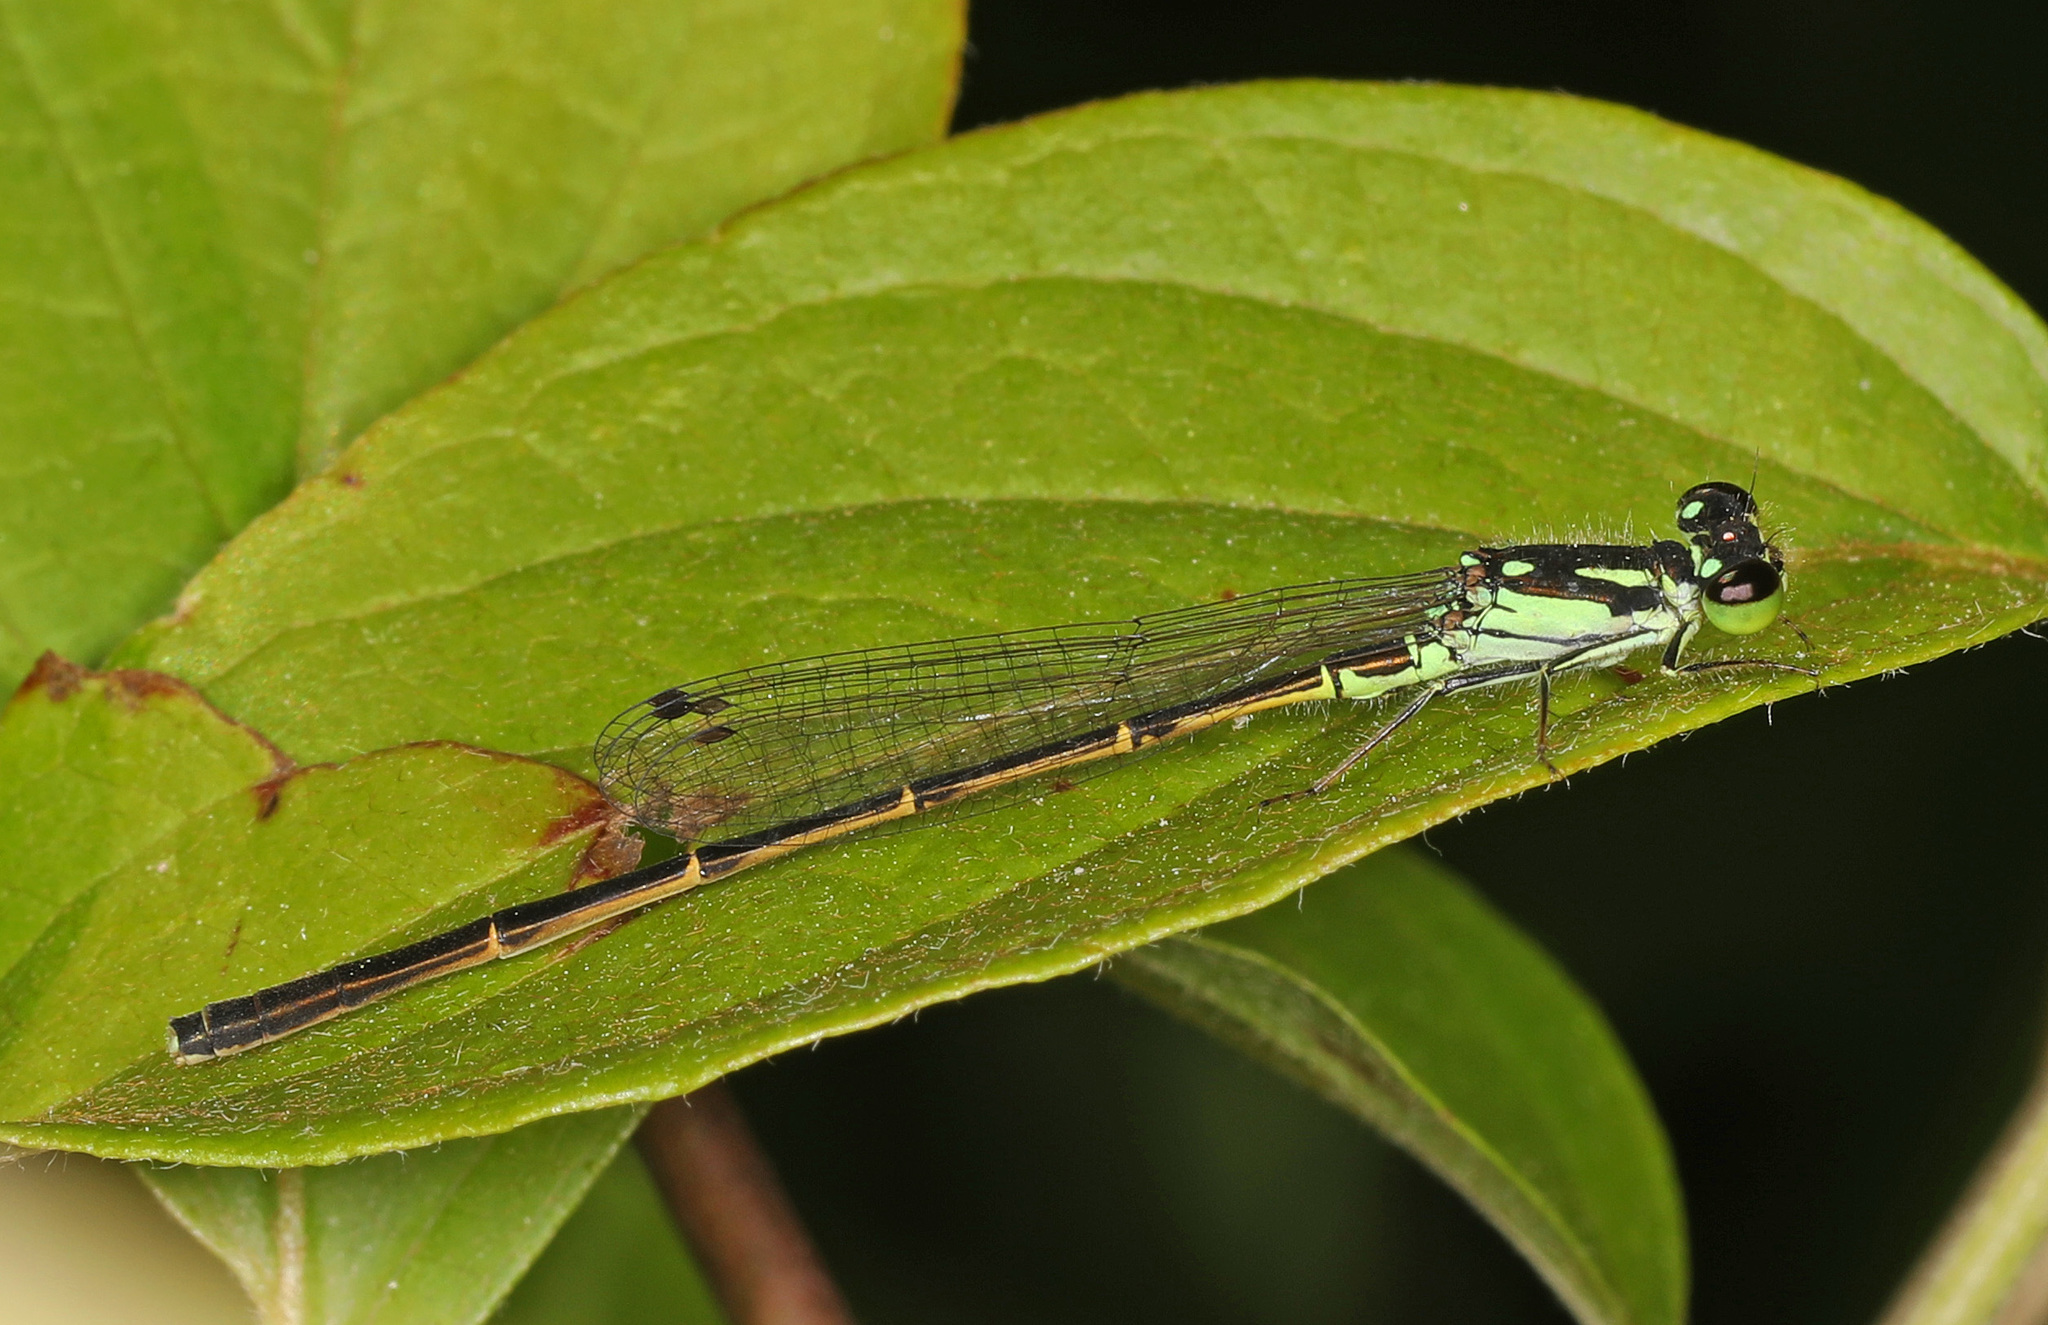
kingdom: Animalia
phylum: Arthropoda
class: Insecta
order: Odonata
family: Coenagrionidae
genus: Ischnura
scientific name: Ischnura posita
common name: Fragile forktail
